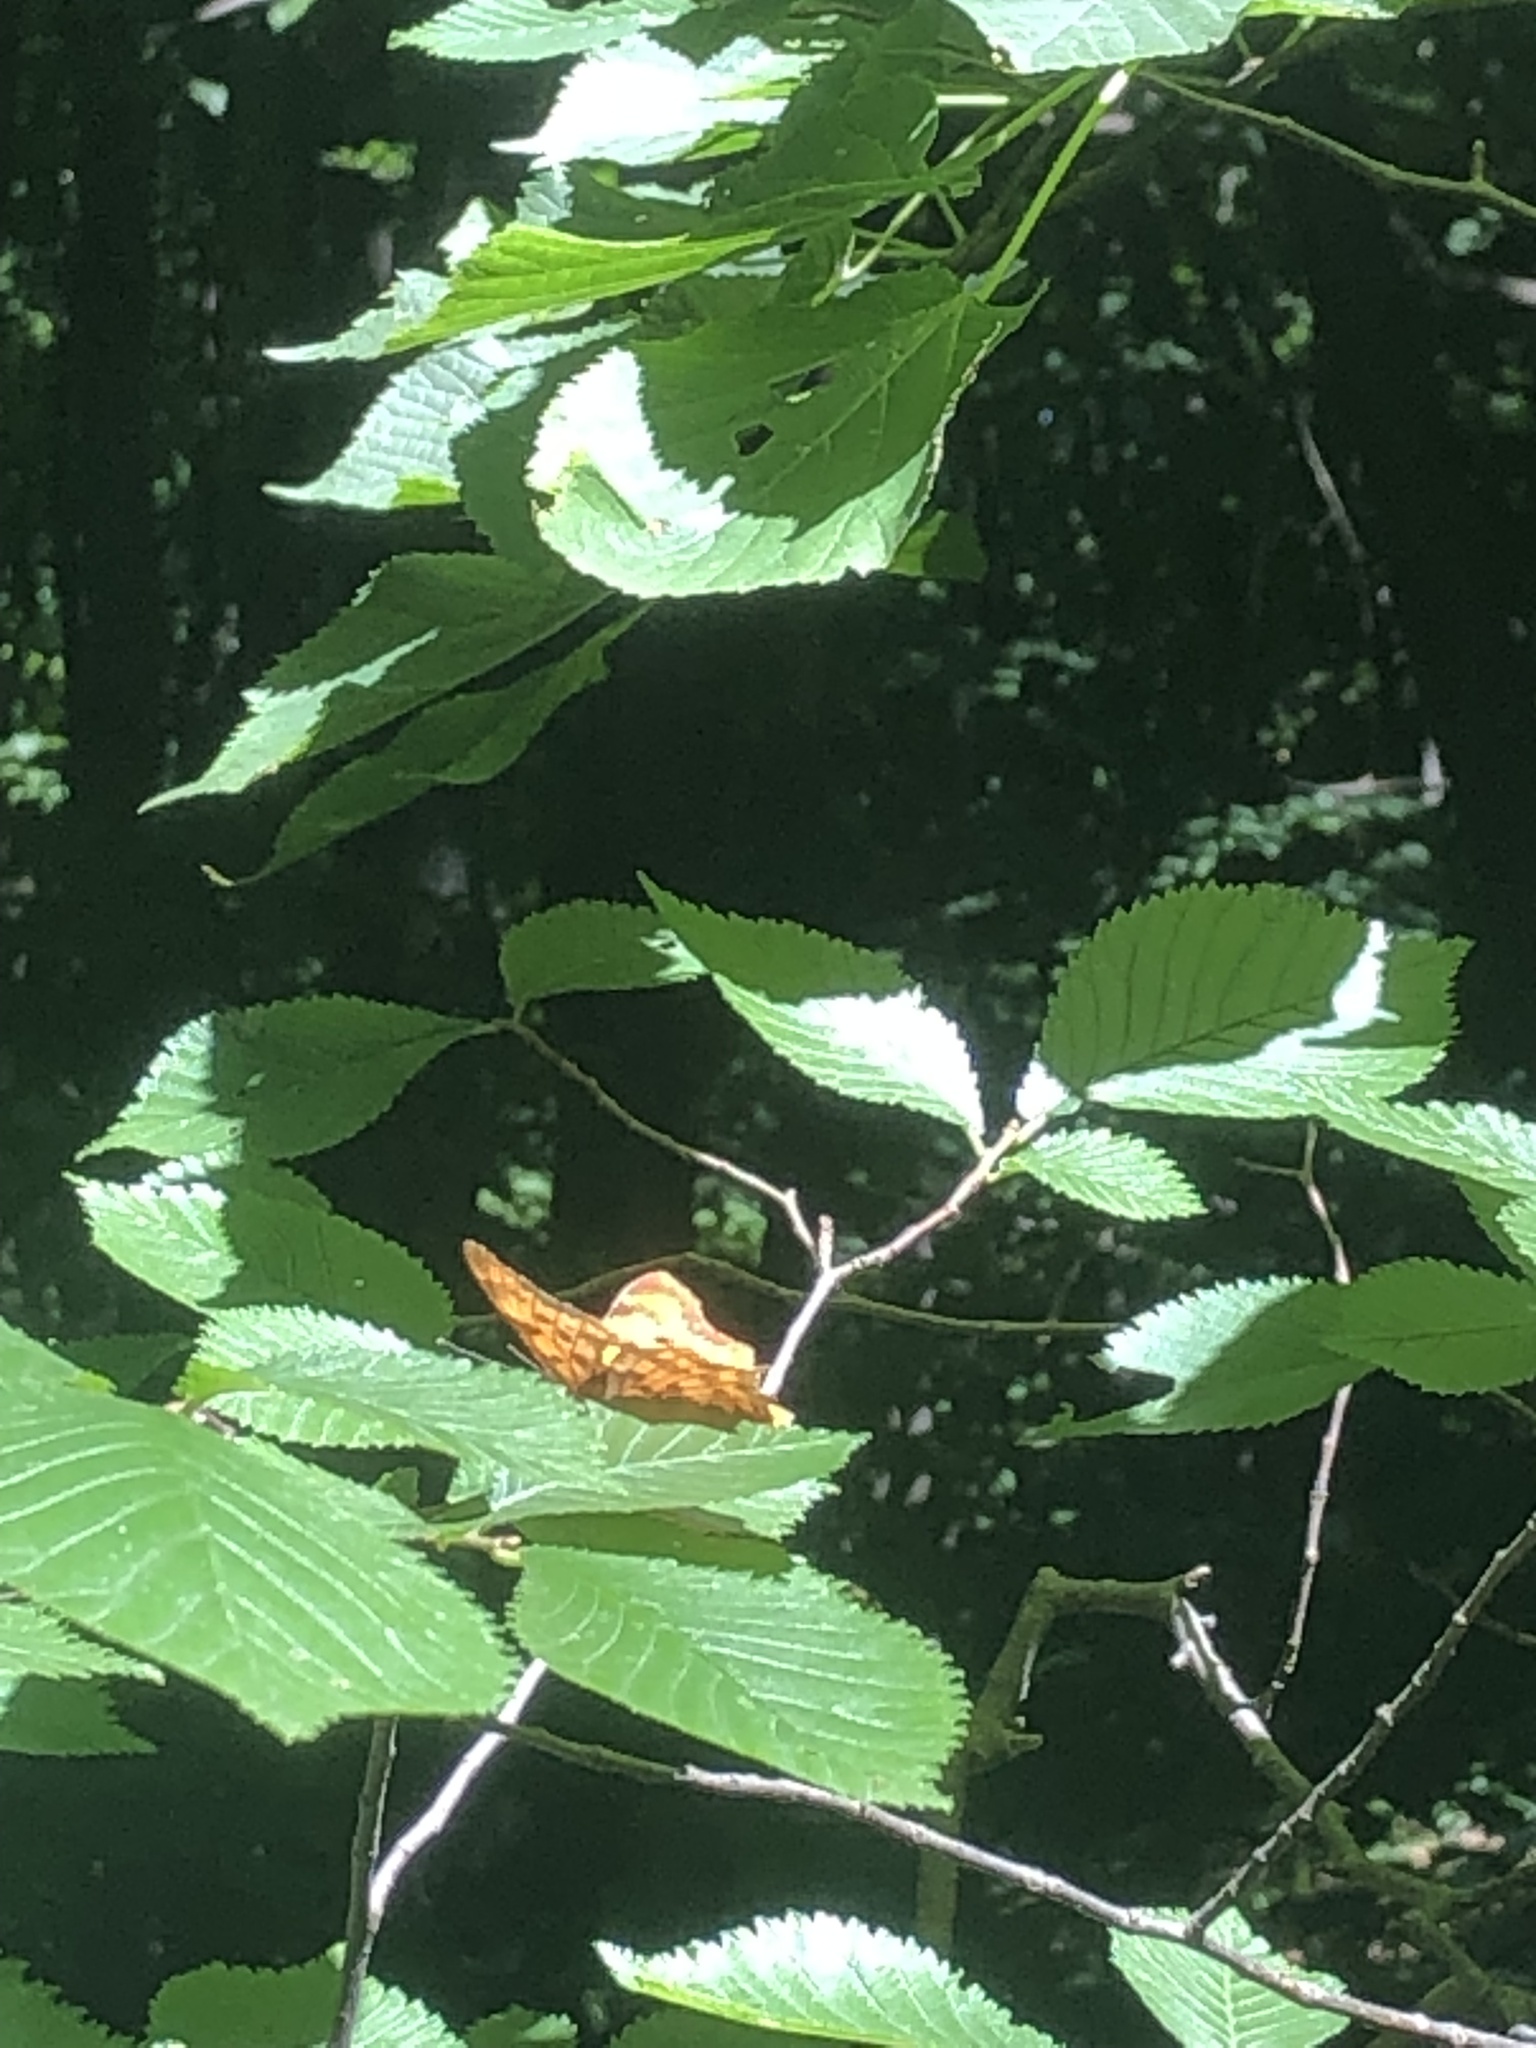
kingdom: Animalia
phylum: Arthropoda
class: Insecta
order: Lepidoptera
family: Nymphalidae
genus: Polygonia
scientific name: Polygonia c-album
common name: Comma
